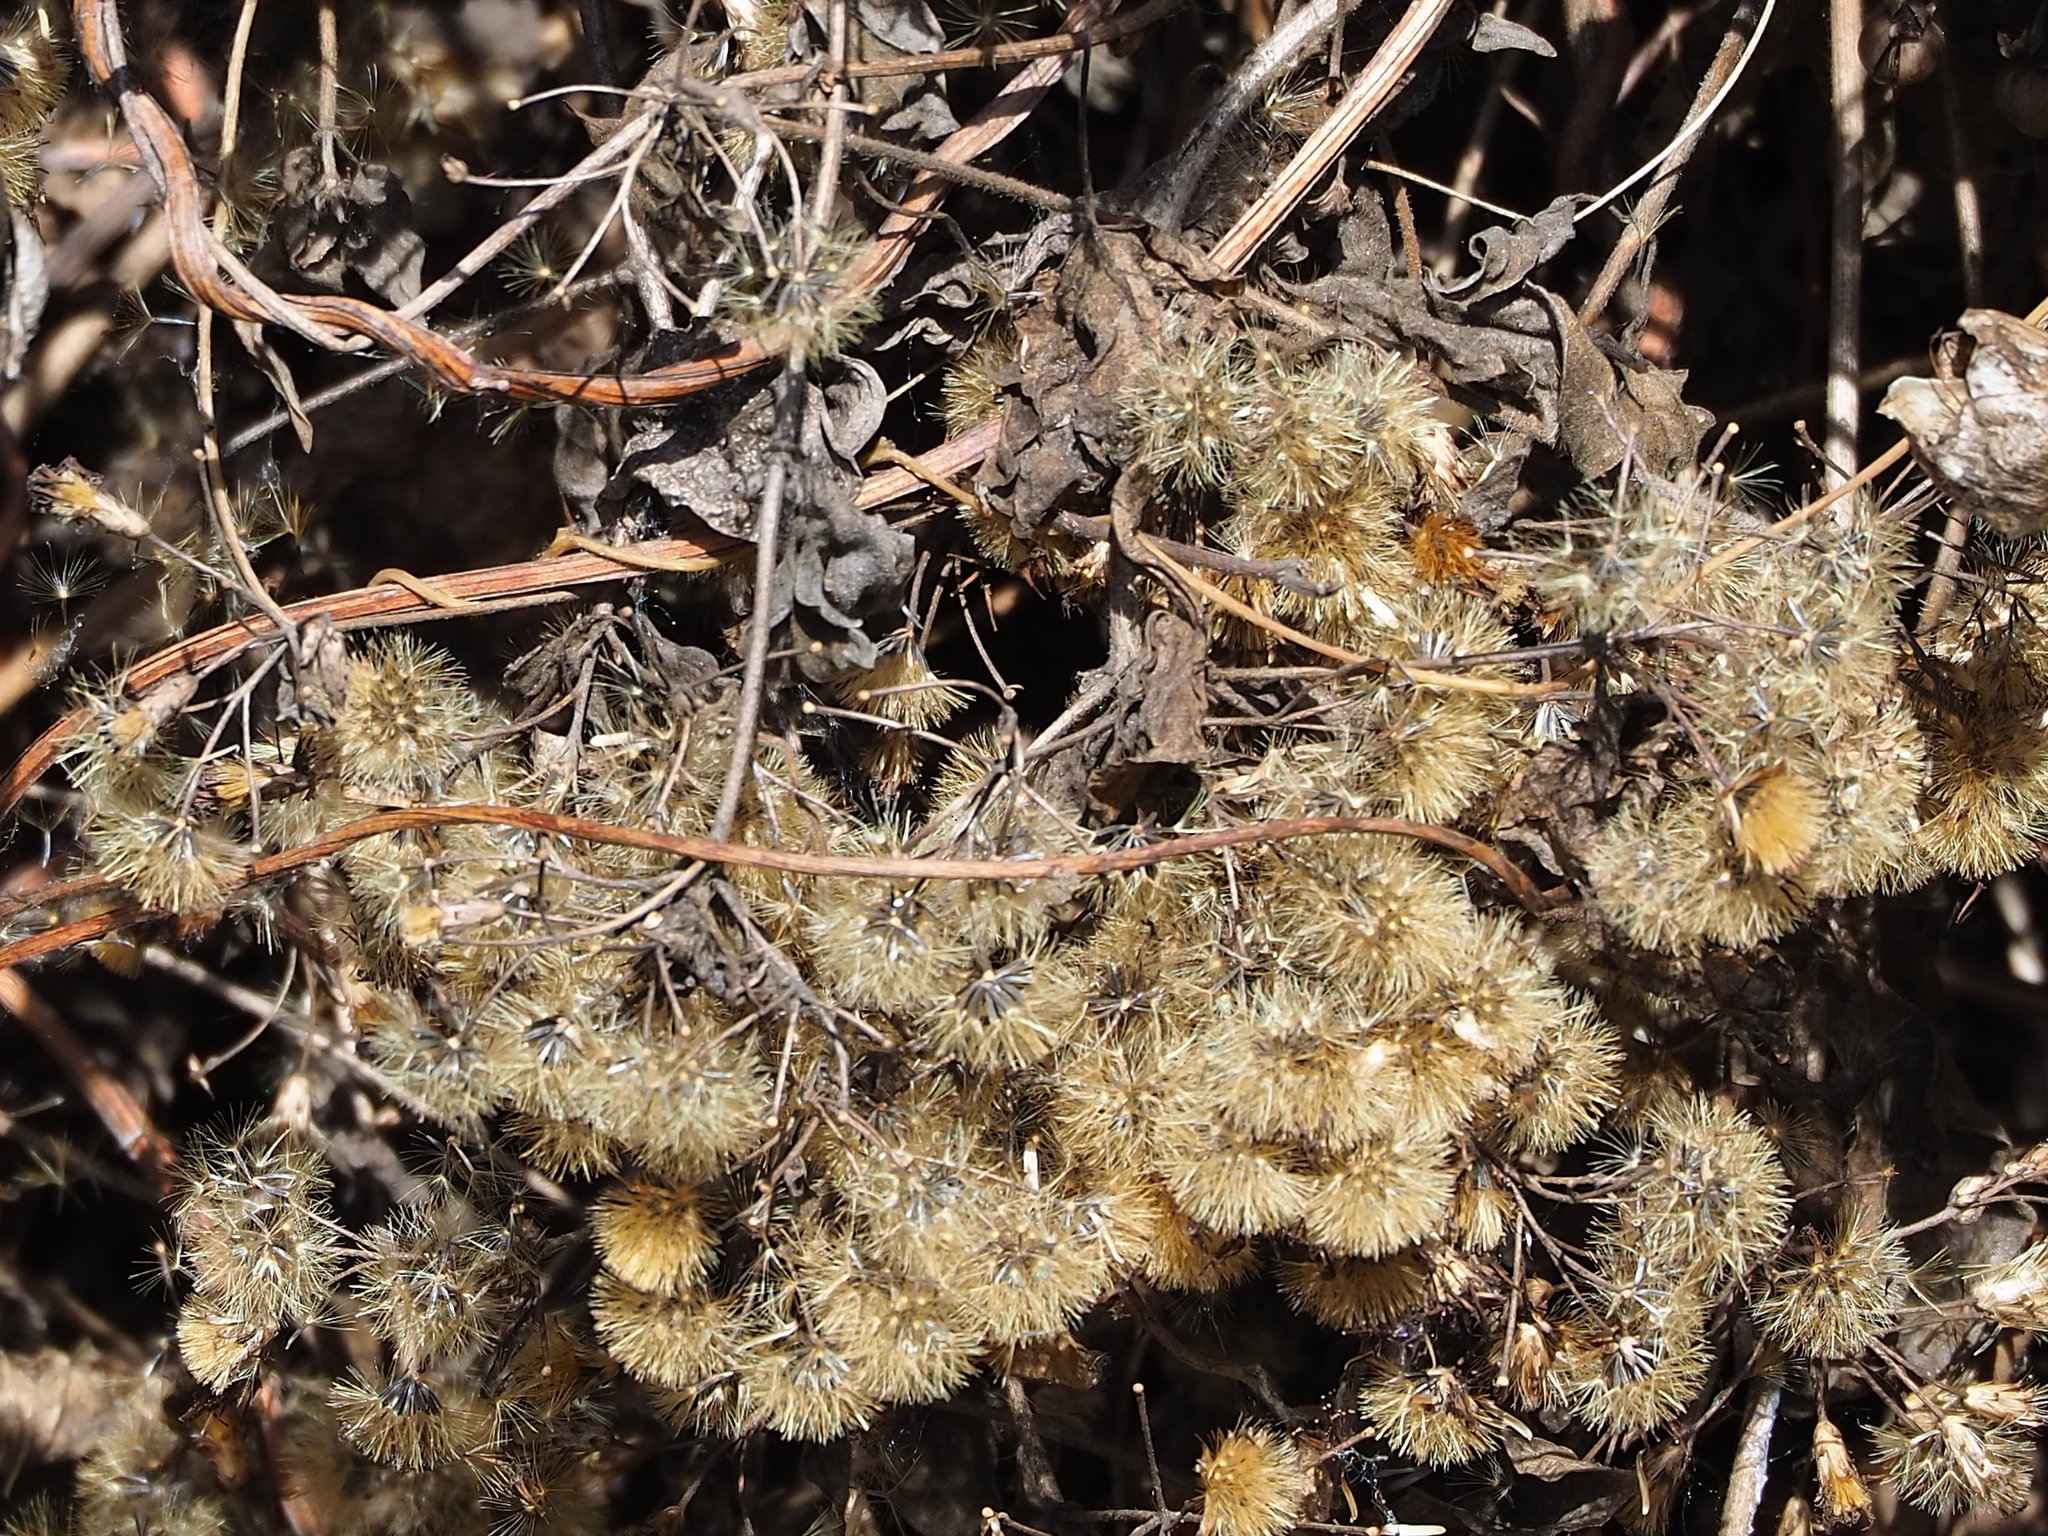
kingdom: Plantae
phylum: Tracheophyta
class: Magnoliopsida
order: Asterales
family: Asteraceae
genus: Chromolaena
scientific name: Chromolaena odorata
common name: Siamweed
